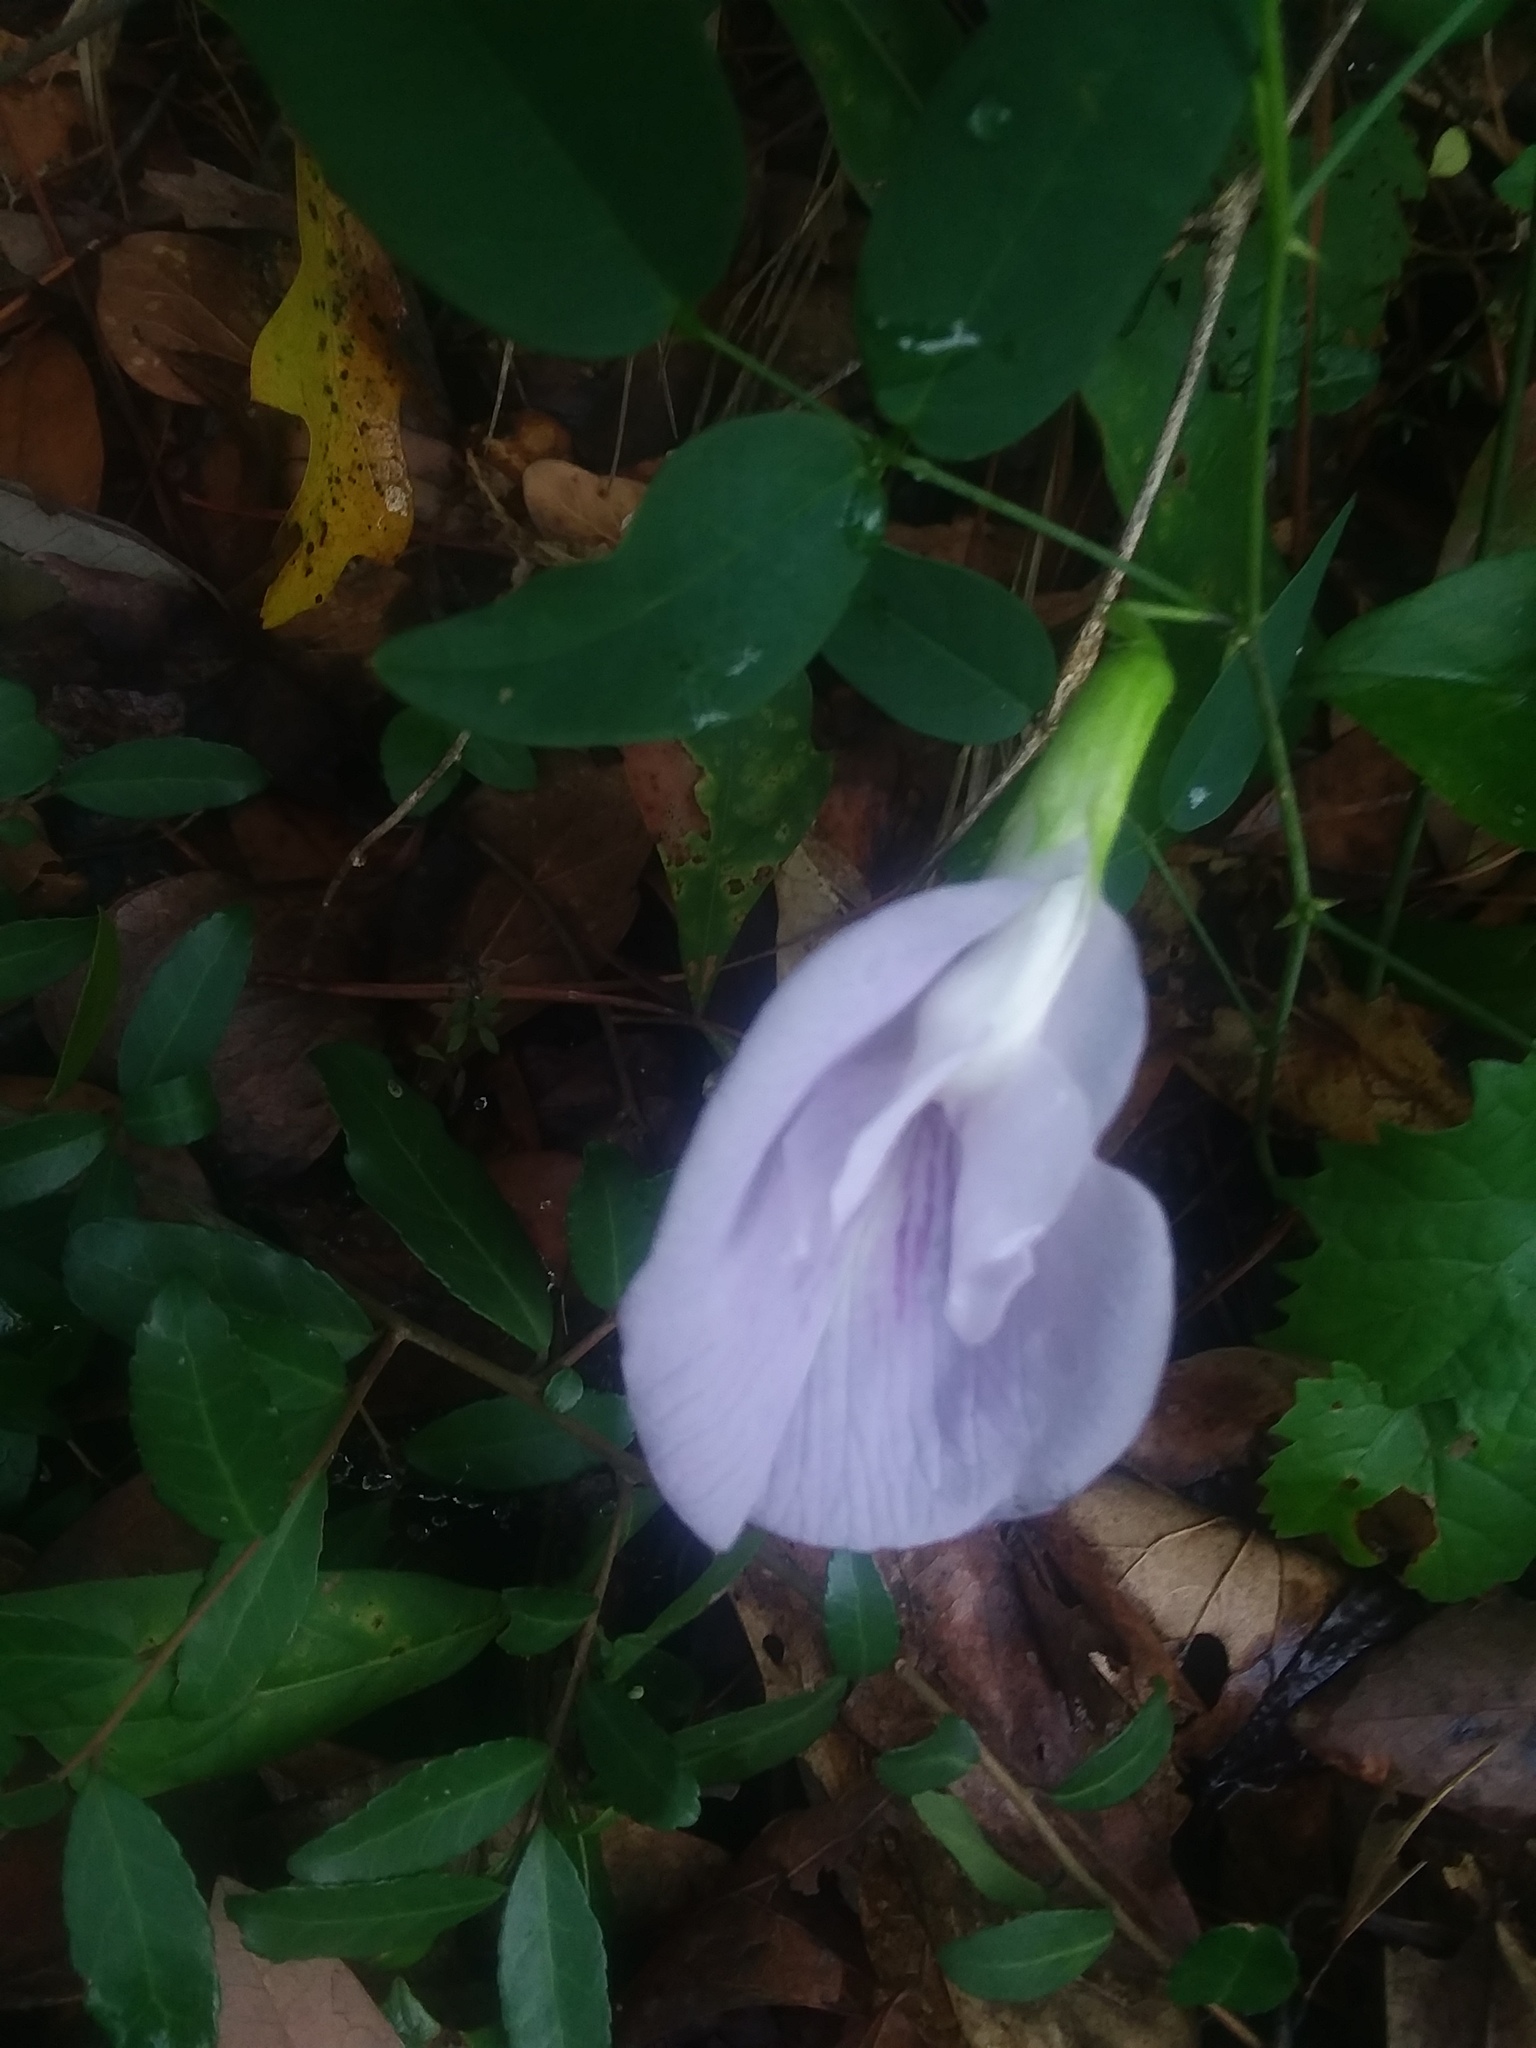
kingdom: Plantae
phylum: Tracheophyta
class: Magnoliopsida
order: Fabales
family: Fabaceae
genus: Clitoria
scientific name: Clitoria mariana
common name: Butterfly-pea
